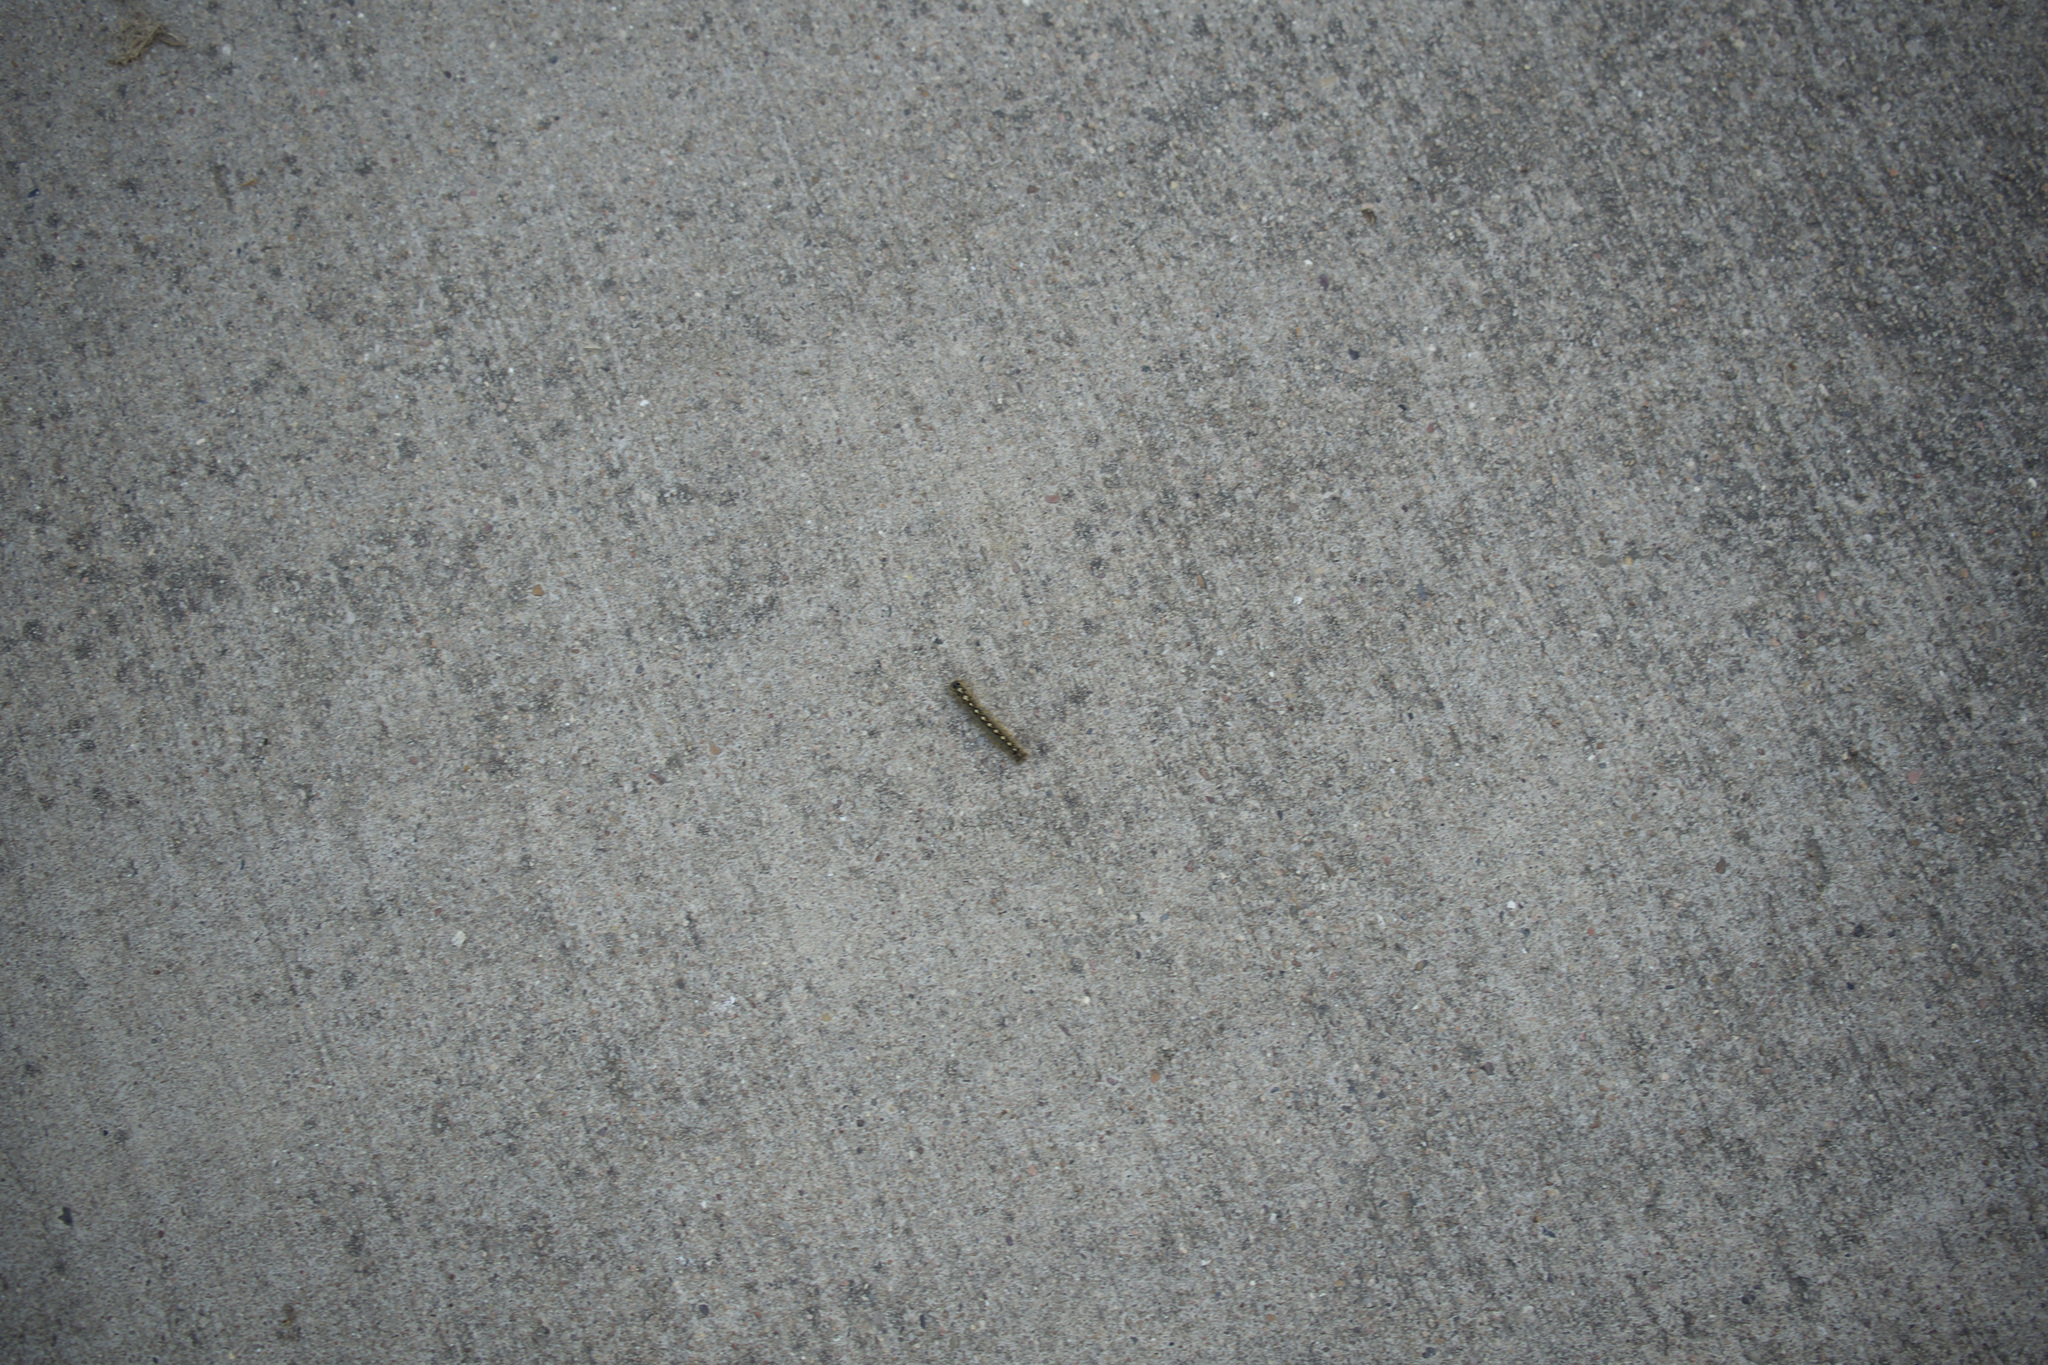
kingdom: Animalia
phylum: Arthropoda
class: Insecta
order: Lepidoptera
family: Lasiocampidae
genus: Malacosoma
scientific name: Malacosoma disstria
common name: Forest tent caterpillar
